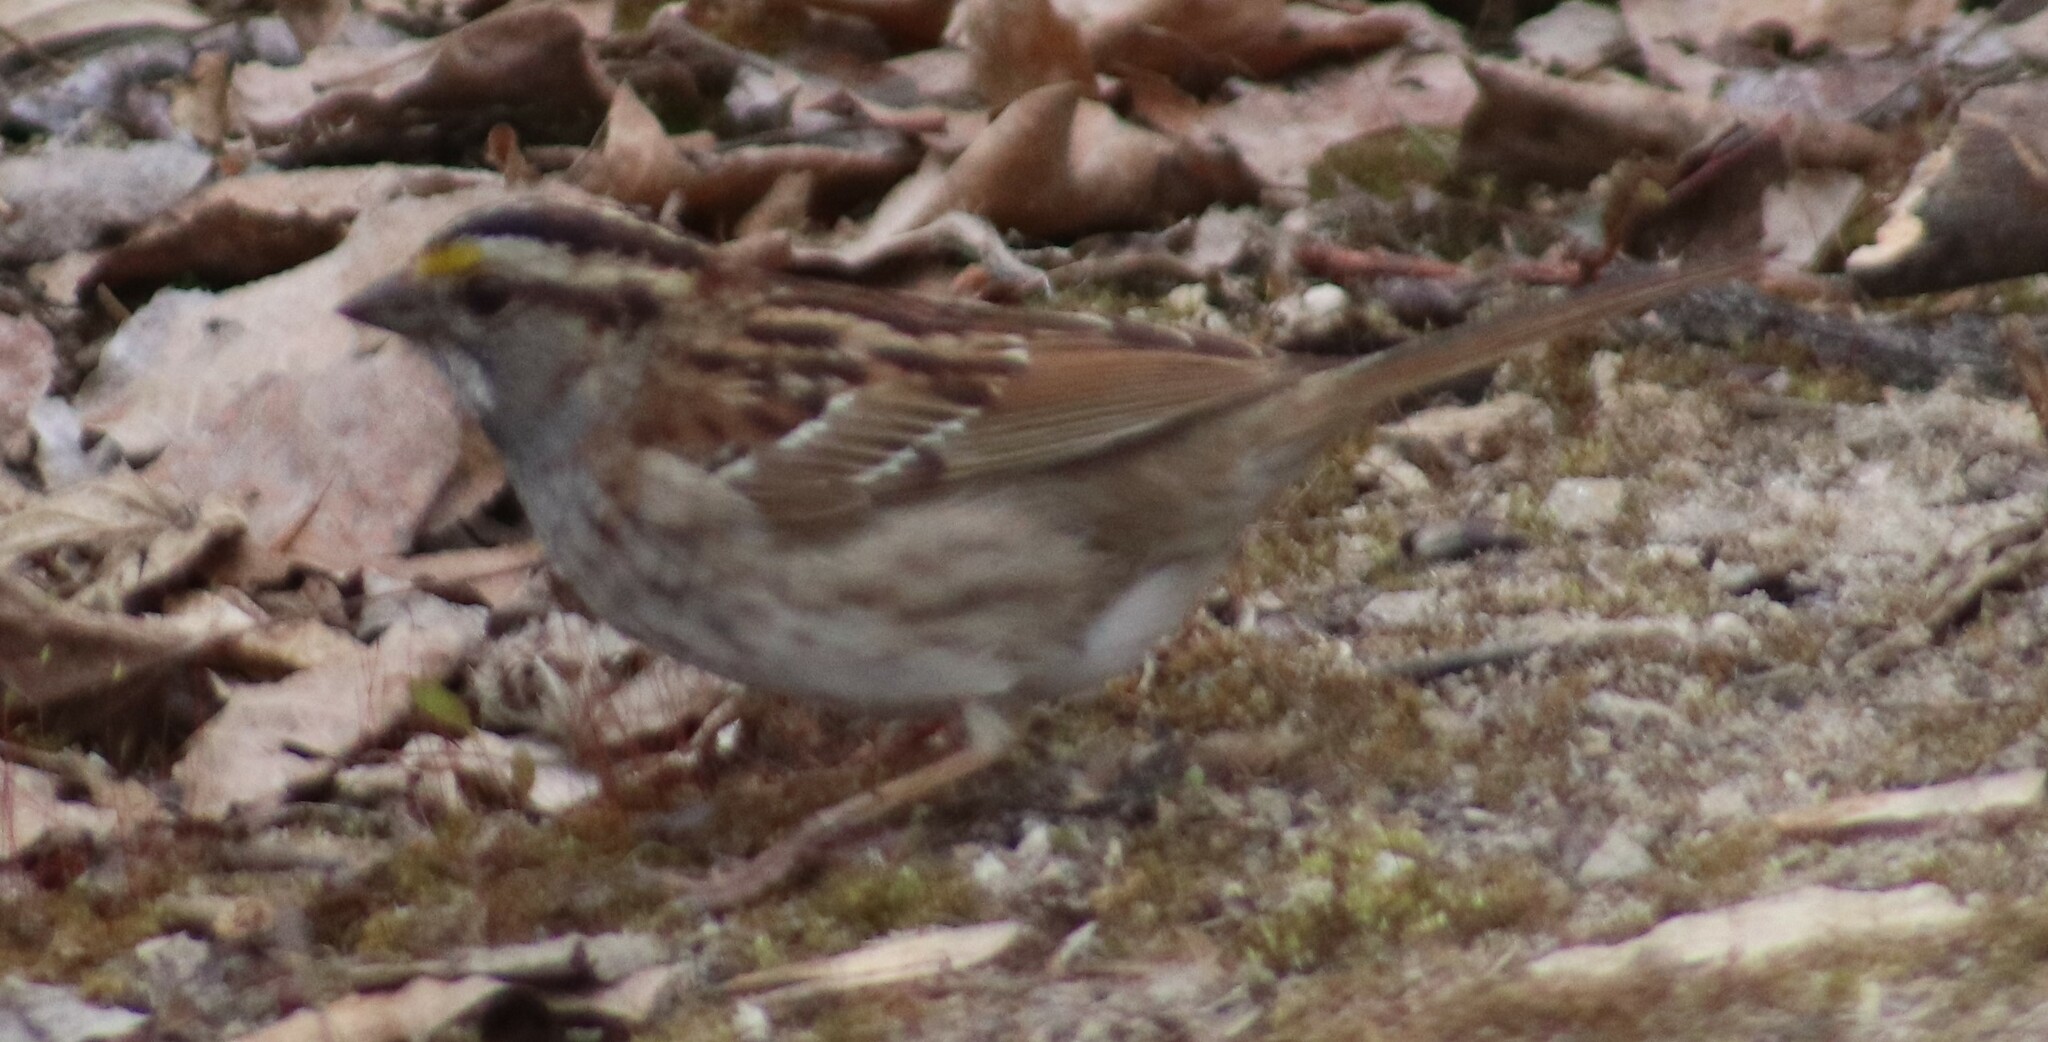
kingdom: Animalia
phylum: Chordata
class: Aves
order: Passeriformes
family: Passerellidae
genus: Zonotrichia
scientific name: Zonotrichia albicollis
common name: White-throated sparrow
